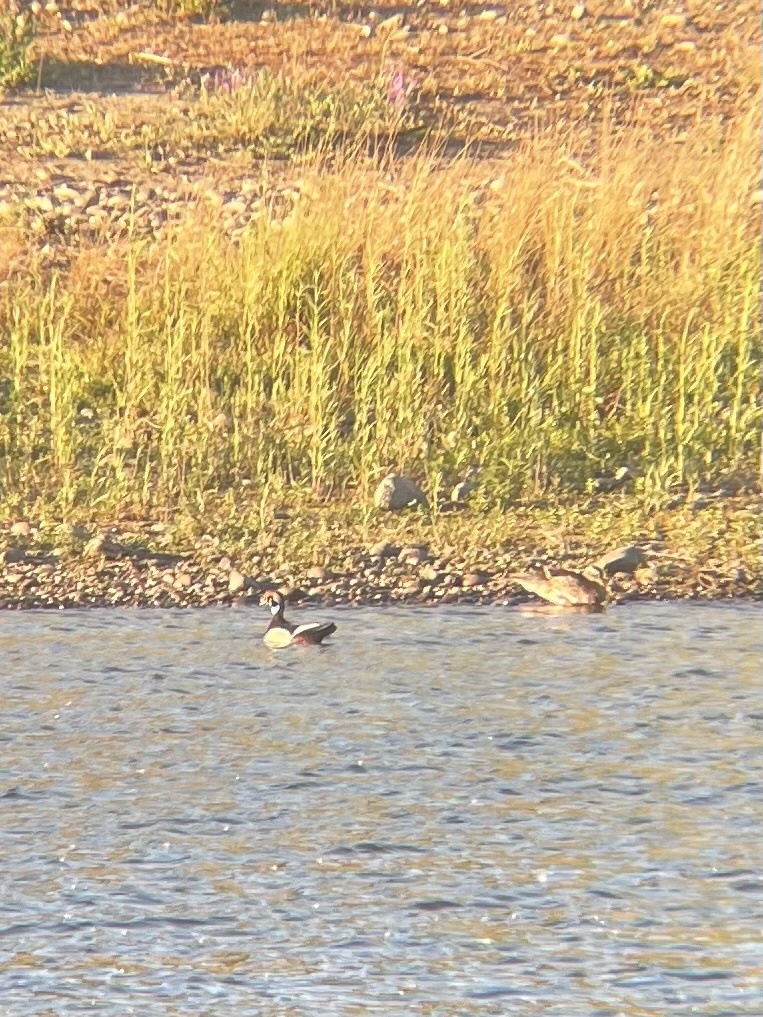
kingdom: Animalia
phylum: Chordata
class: Aves
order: Anseriformes
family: Anatidae
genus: Aix
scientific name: Aix sponsa
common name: Wood duck
